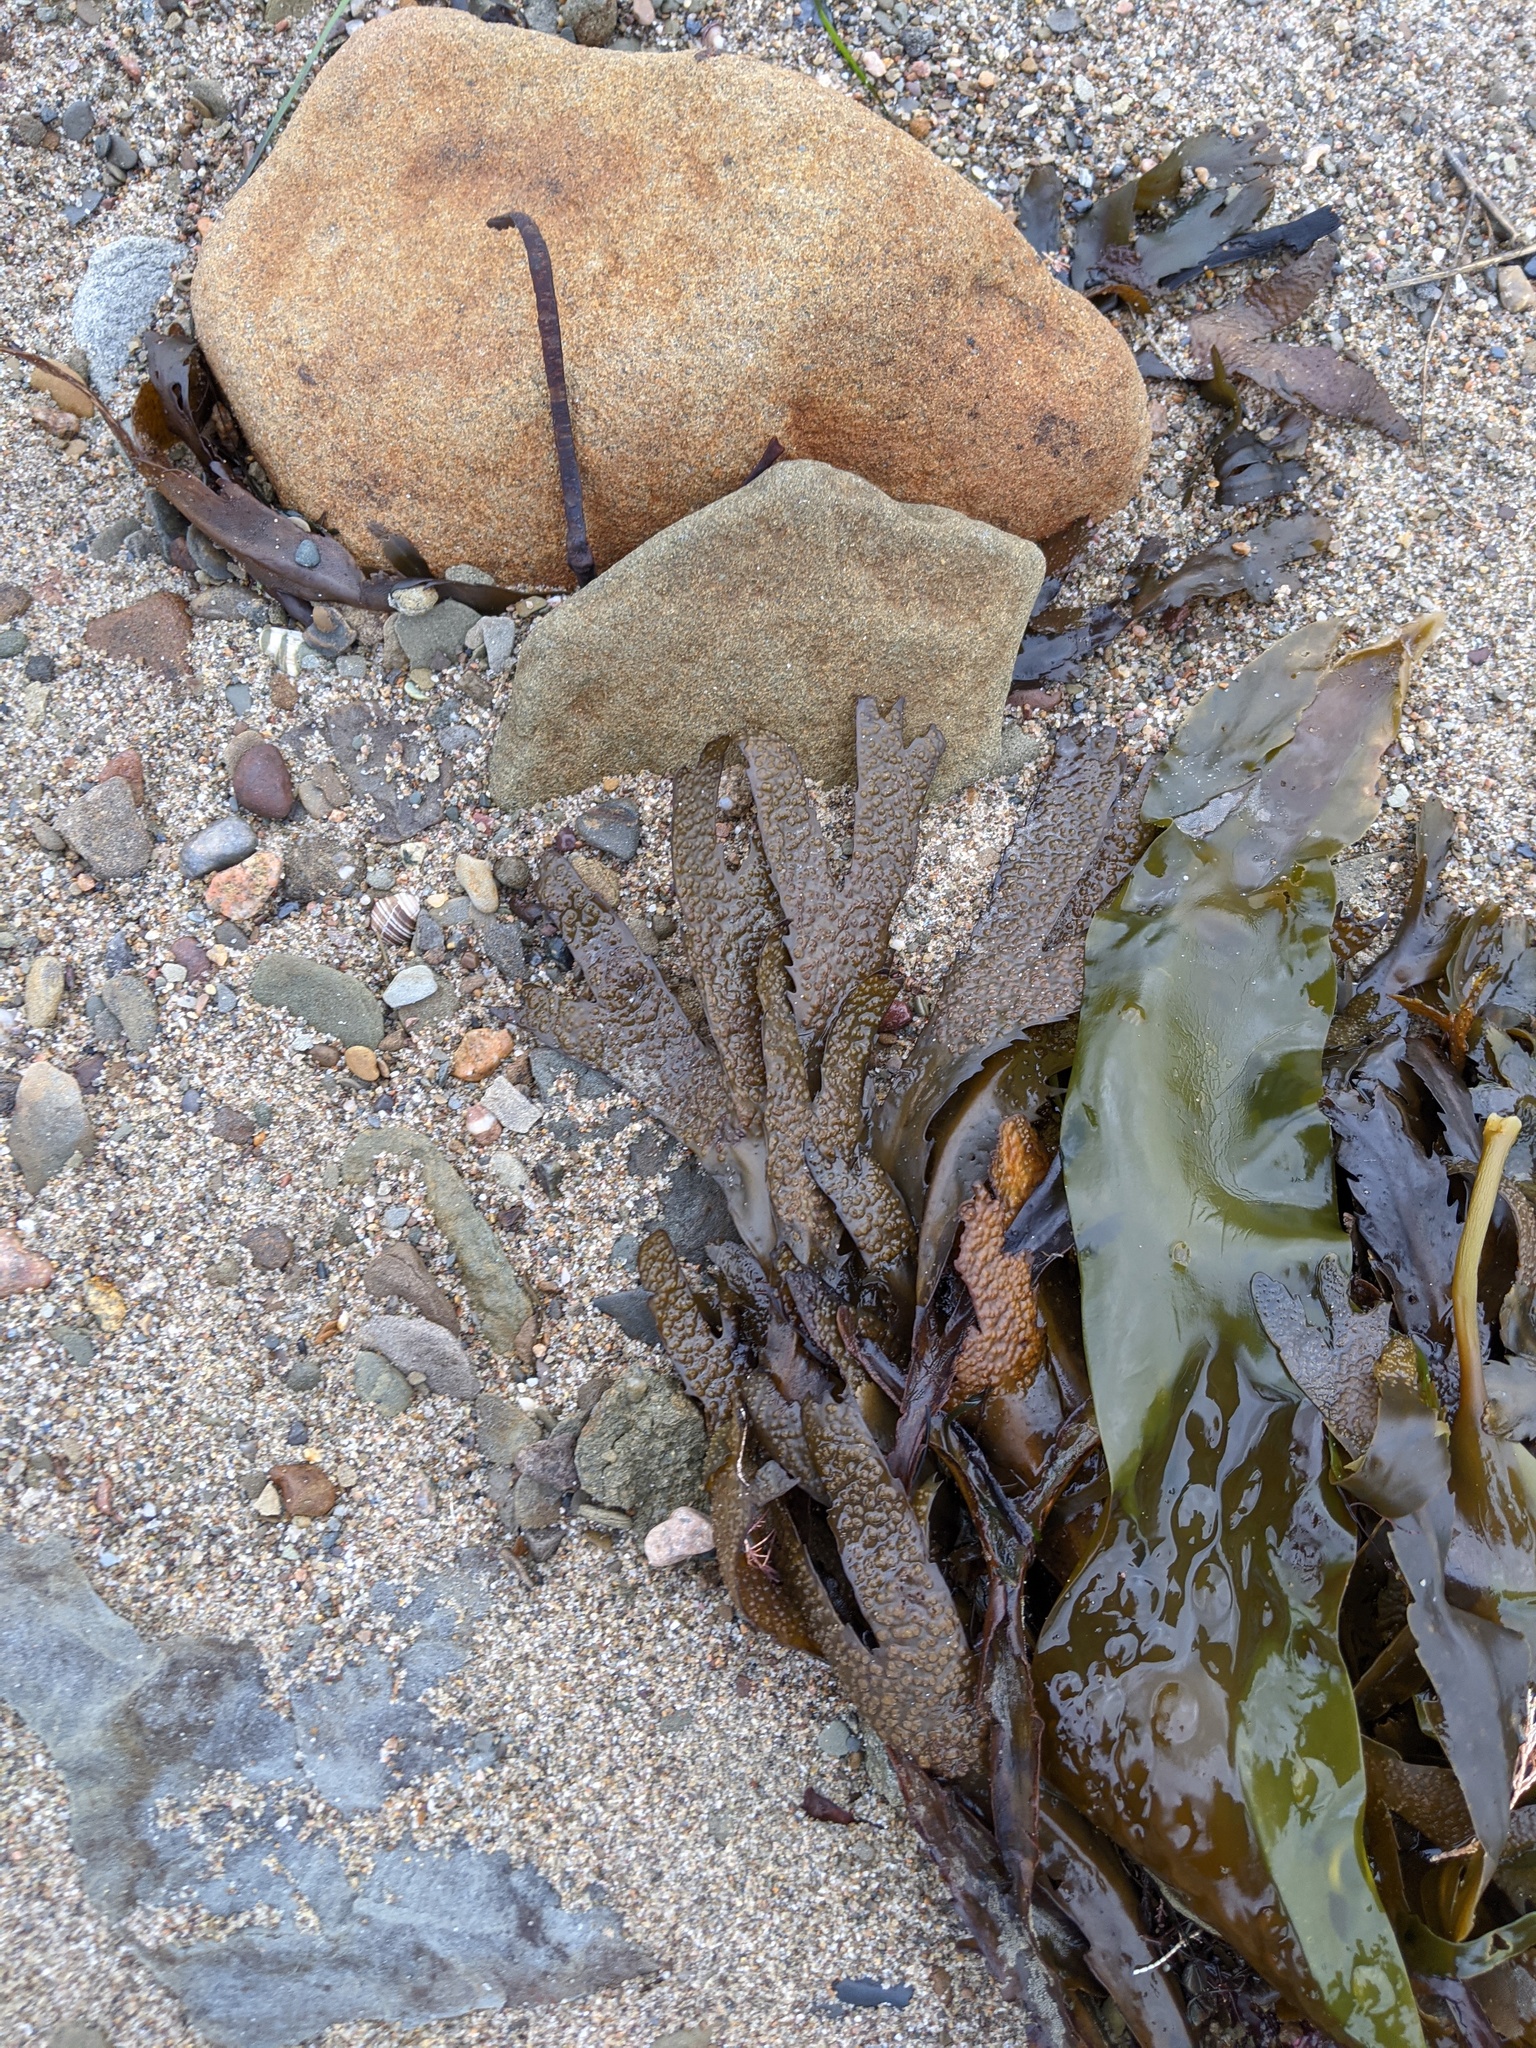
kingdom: Chromista
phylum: Ochrophyta
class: Phaeophyceae
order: Fucales
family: Fucaceae
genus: Fucus
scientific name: Fucus serratus
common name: Toothed wrack
